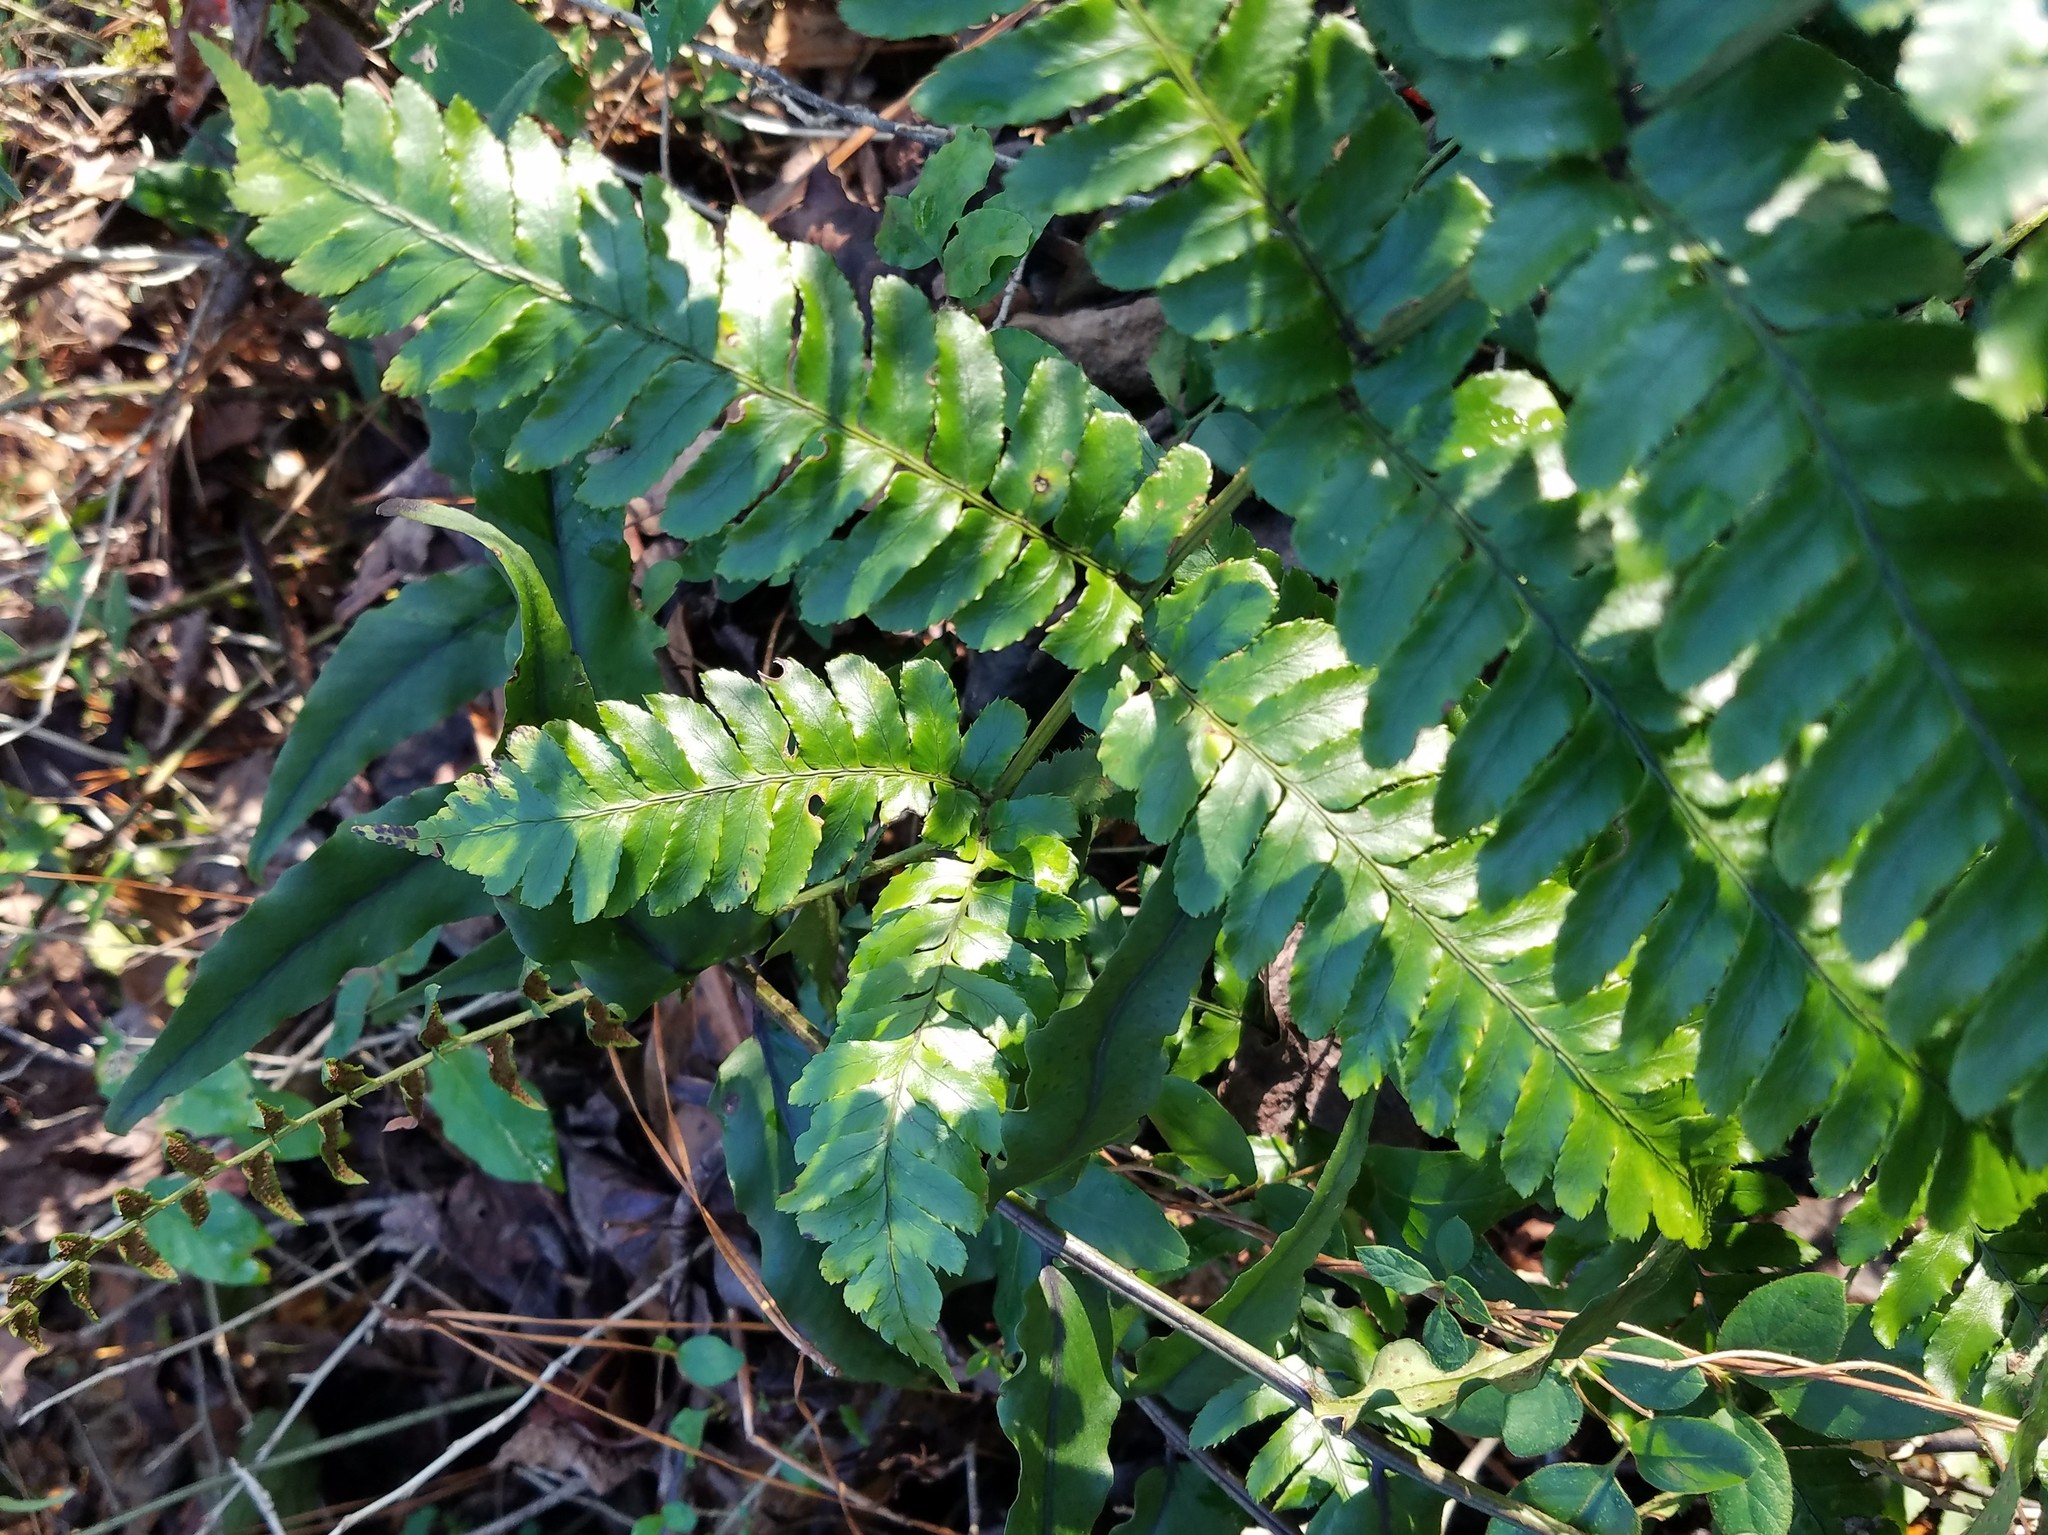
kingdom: Plantae
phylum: Tracheophyta
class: Polypodiopsida
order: Polypodiales
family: Dryopteridaceae
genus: Dryopteris
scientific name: Dryopteris erythrosora
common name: Autumn fern
